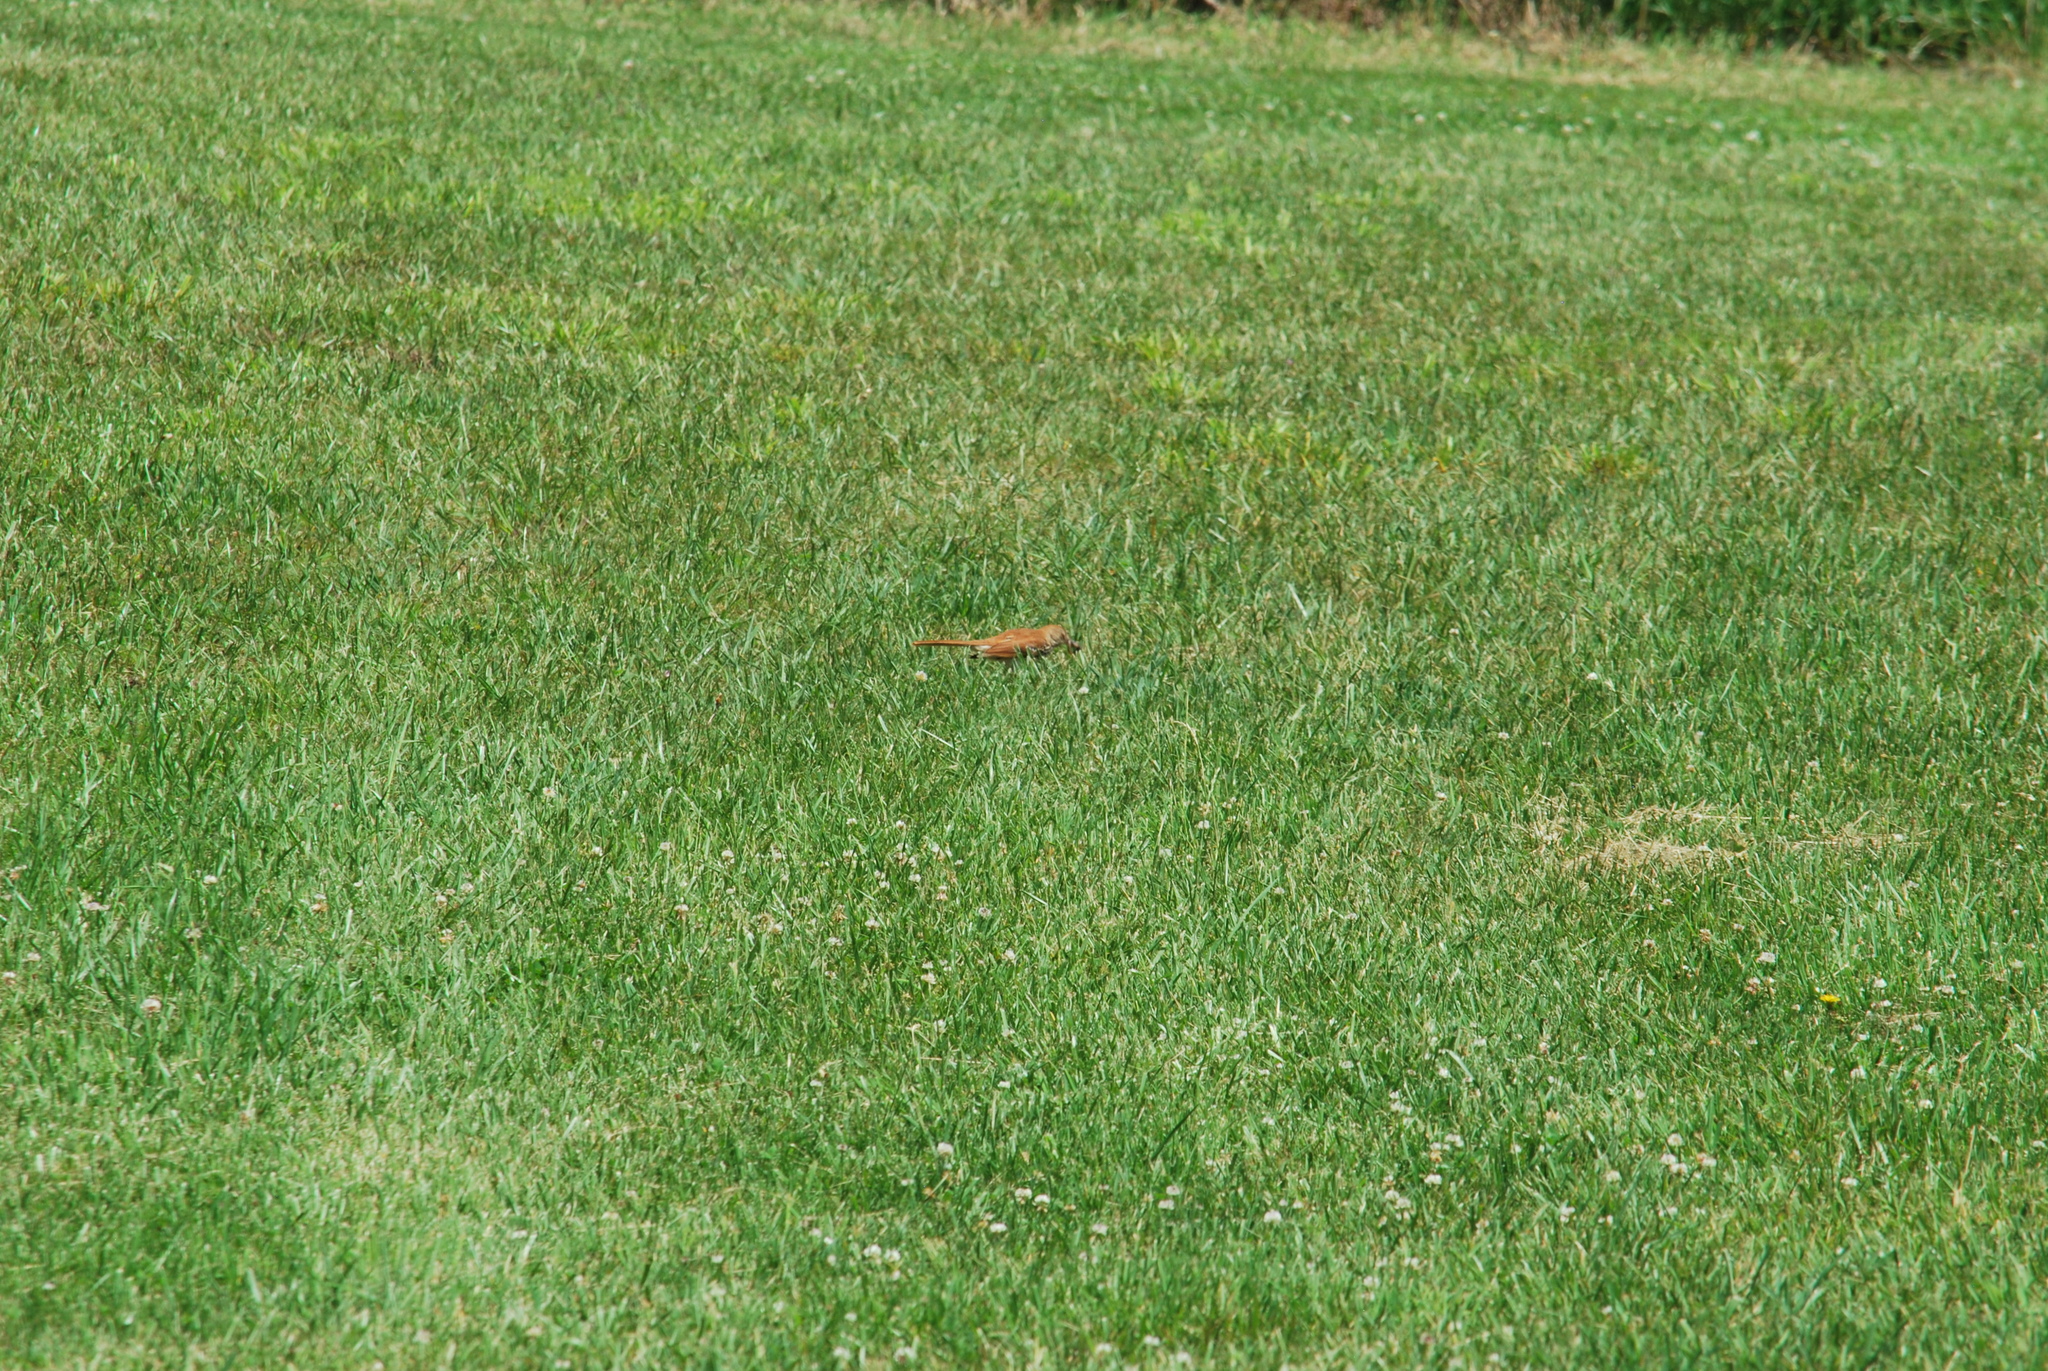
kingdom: Animalia
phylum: Chordata
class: Aves
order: Passeriformes
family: Mimidae
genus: Toxostoma
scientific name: Toxostoma rufum
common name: Brown thrasher
